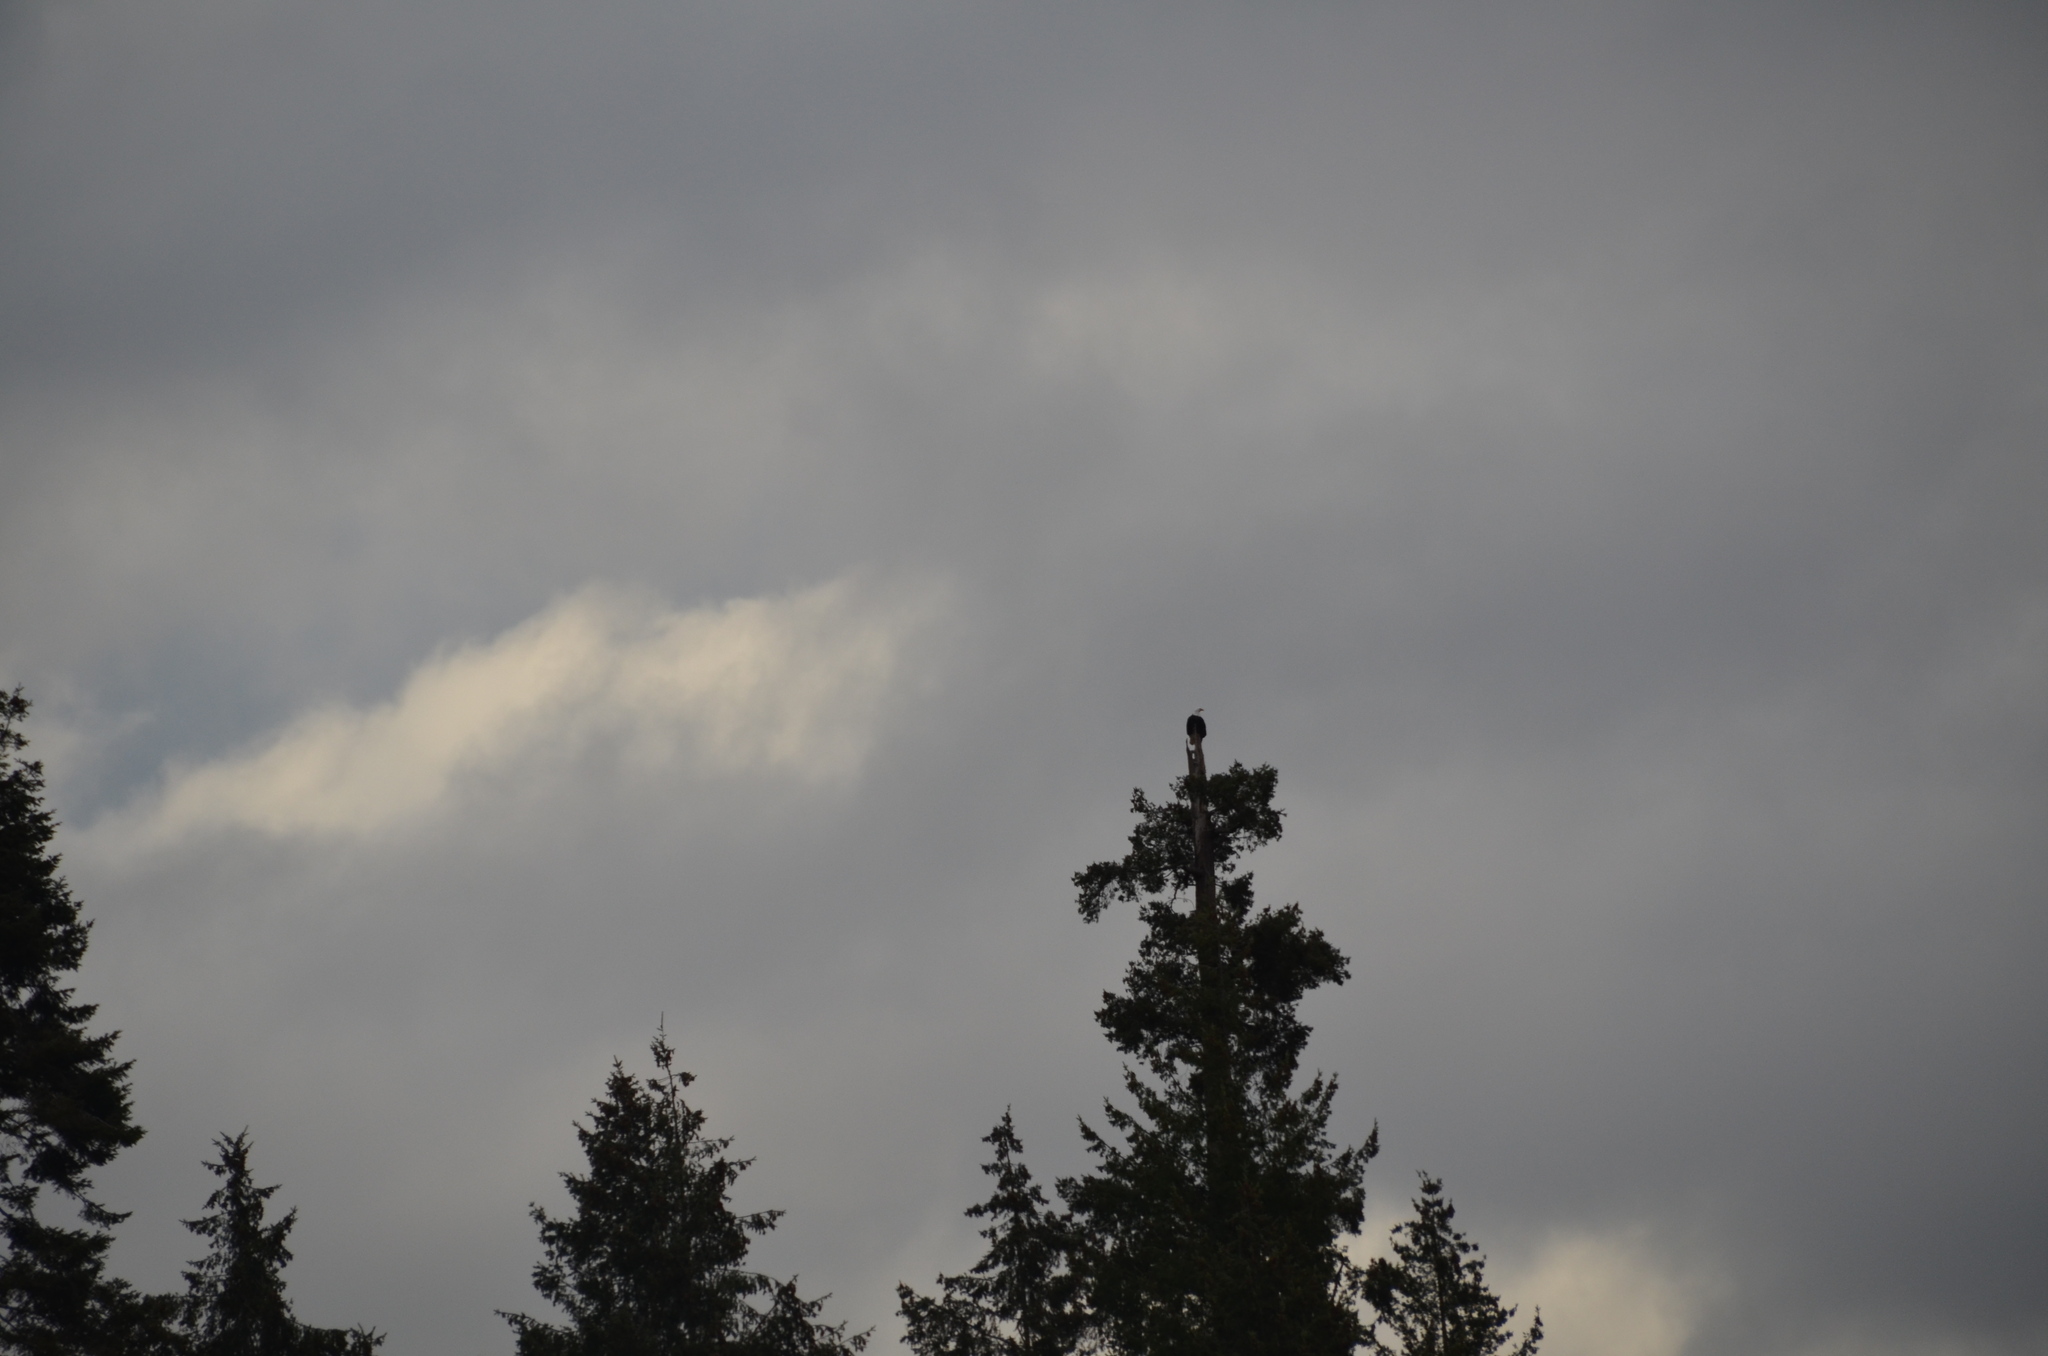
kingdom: Animalia
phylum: Chordata
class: Aves
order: Accipitriformes
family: Accipitridae
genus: Haliaeetus
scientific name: Haliaeetus leucocephalus
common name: Bald eagle
